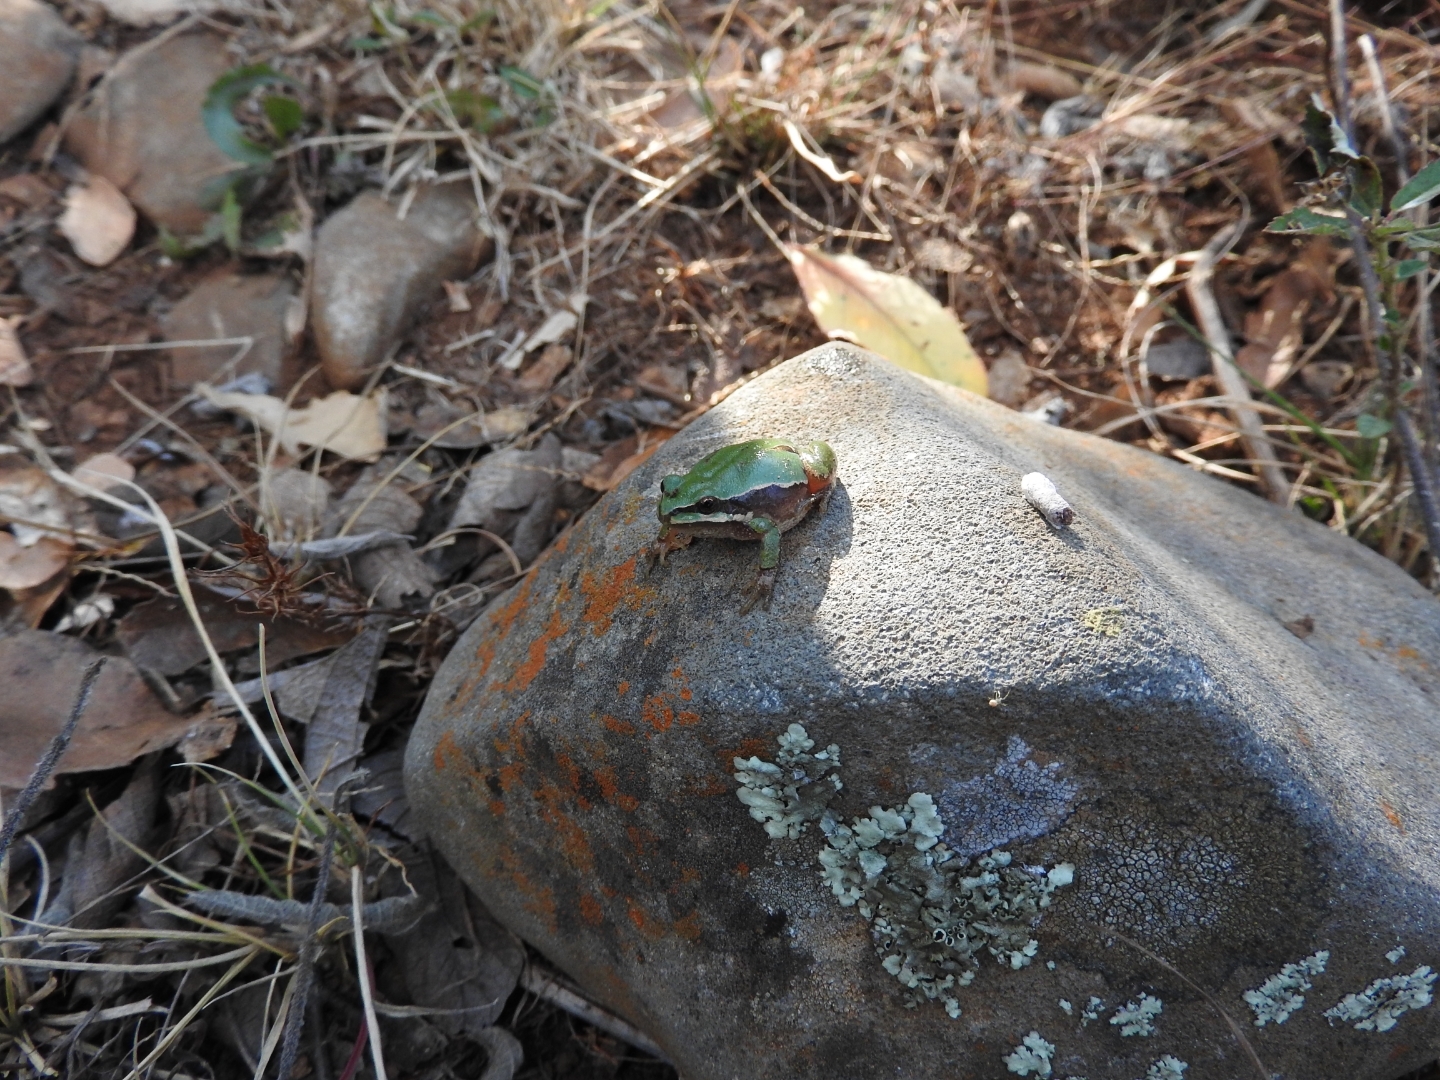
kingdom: Animalia
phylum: Chordata
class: Amphibia
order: Anura
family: Hylidae
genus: Dryophytes
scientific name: Dryophytes eximius
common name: Mountain treefrog
